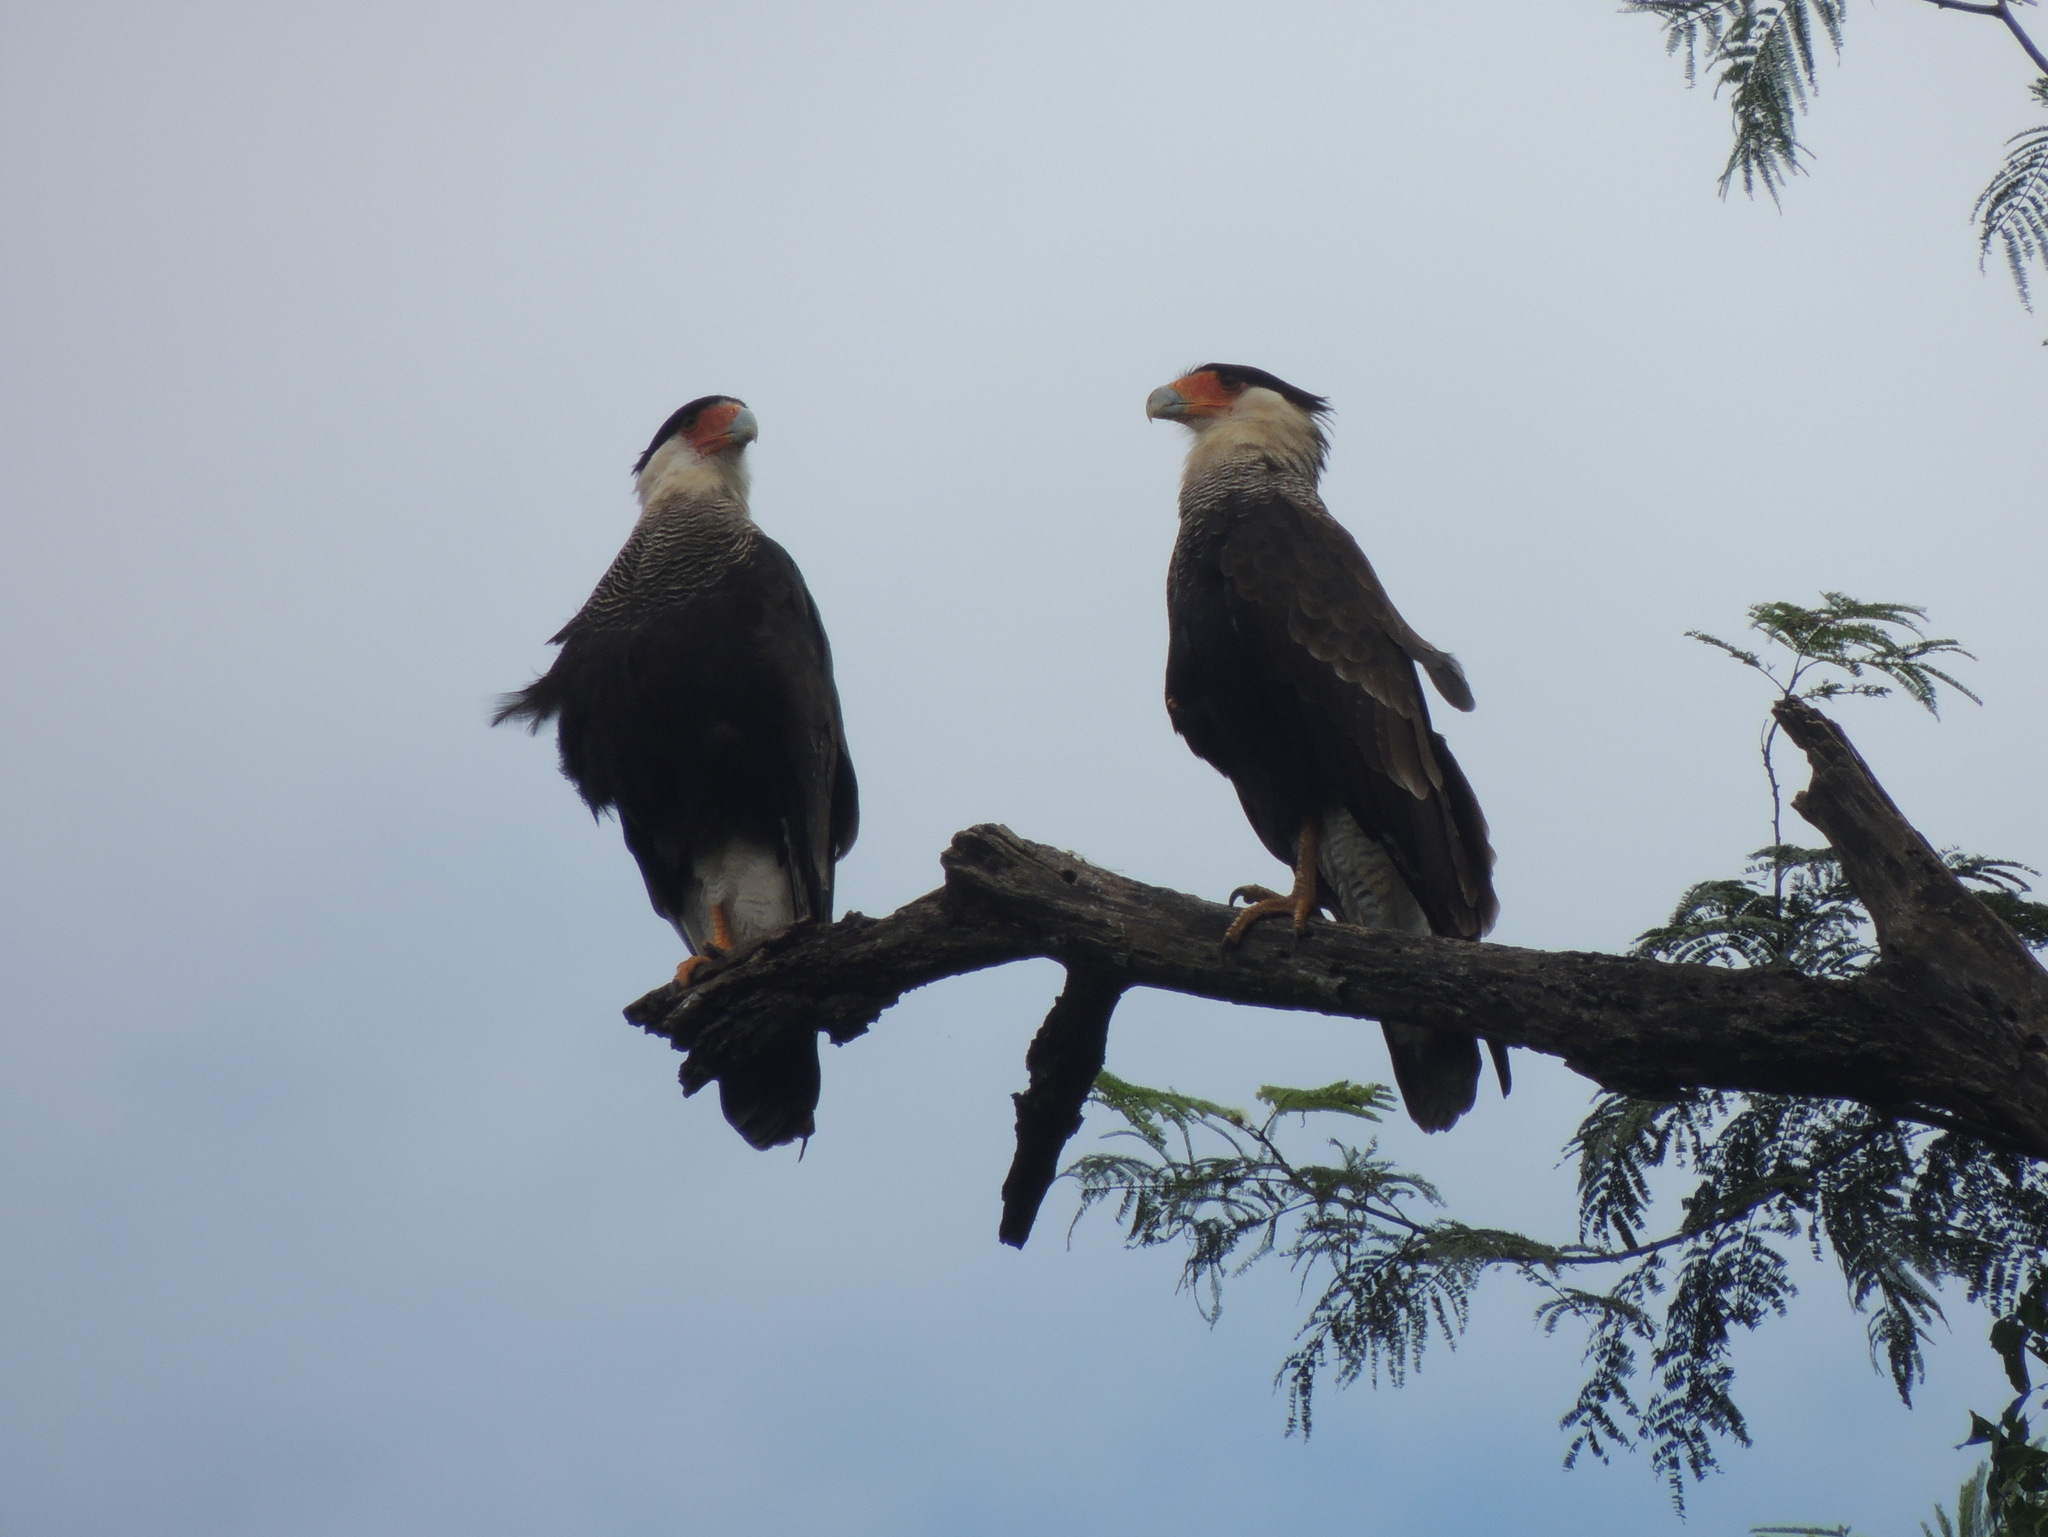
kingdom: Animalia
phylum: Chordata
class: Aves
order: Falconiformes
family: Falconidae
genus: Caracara
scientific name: Caracara plancus
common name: Southern caracara
